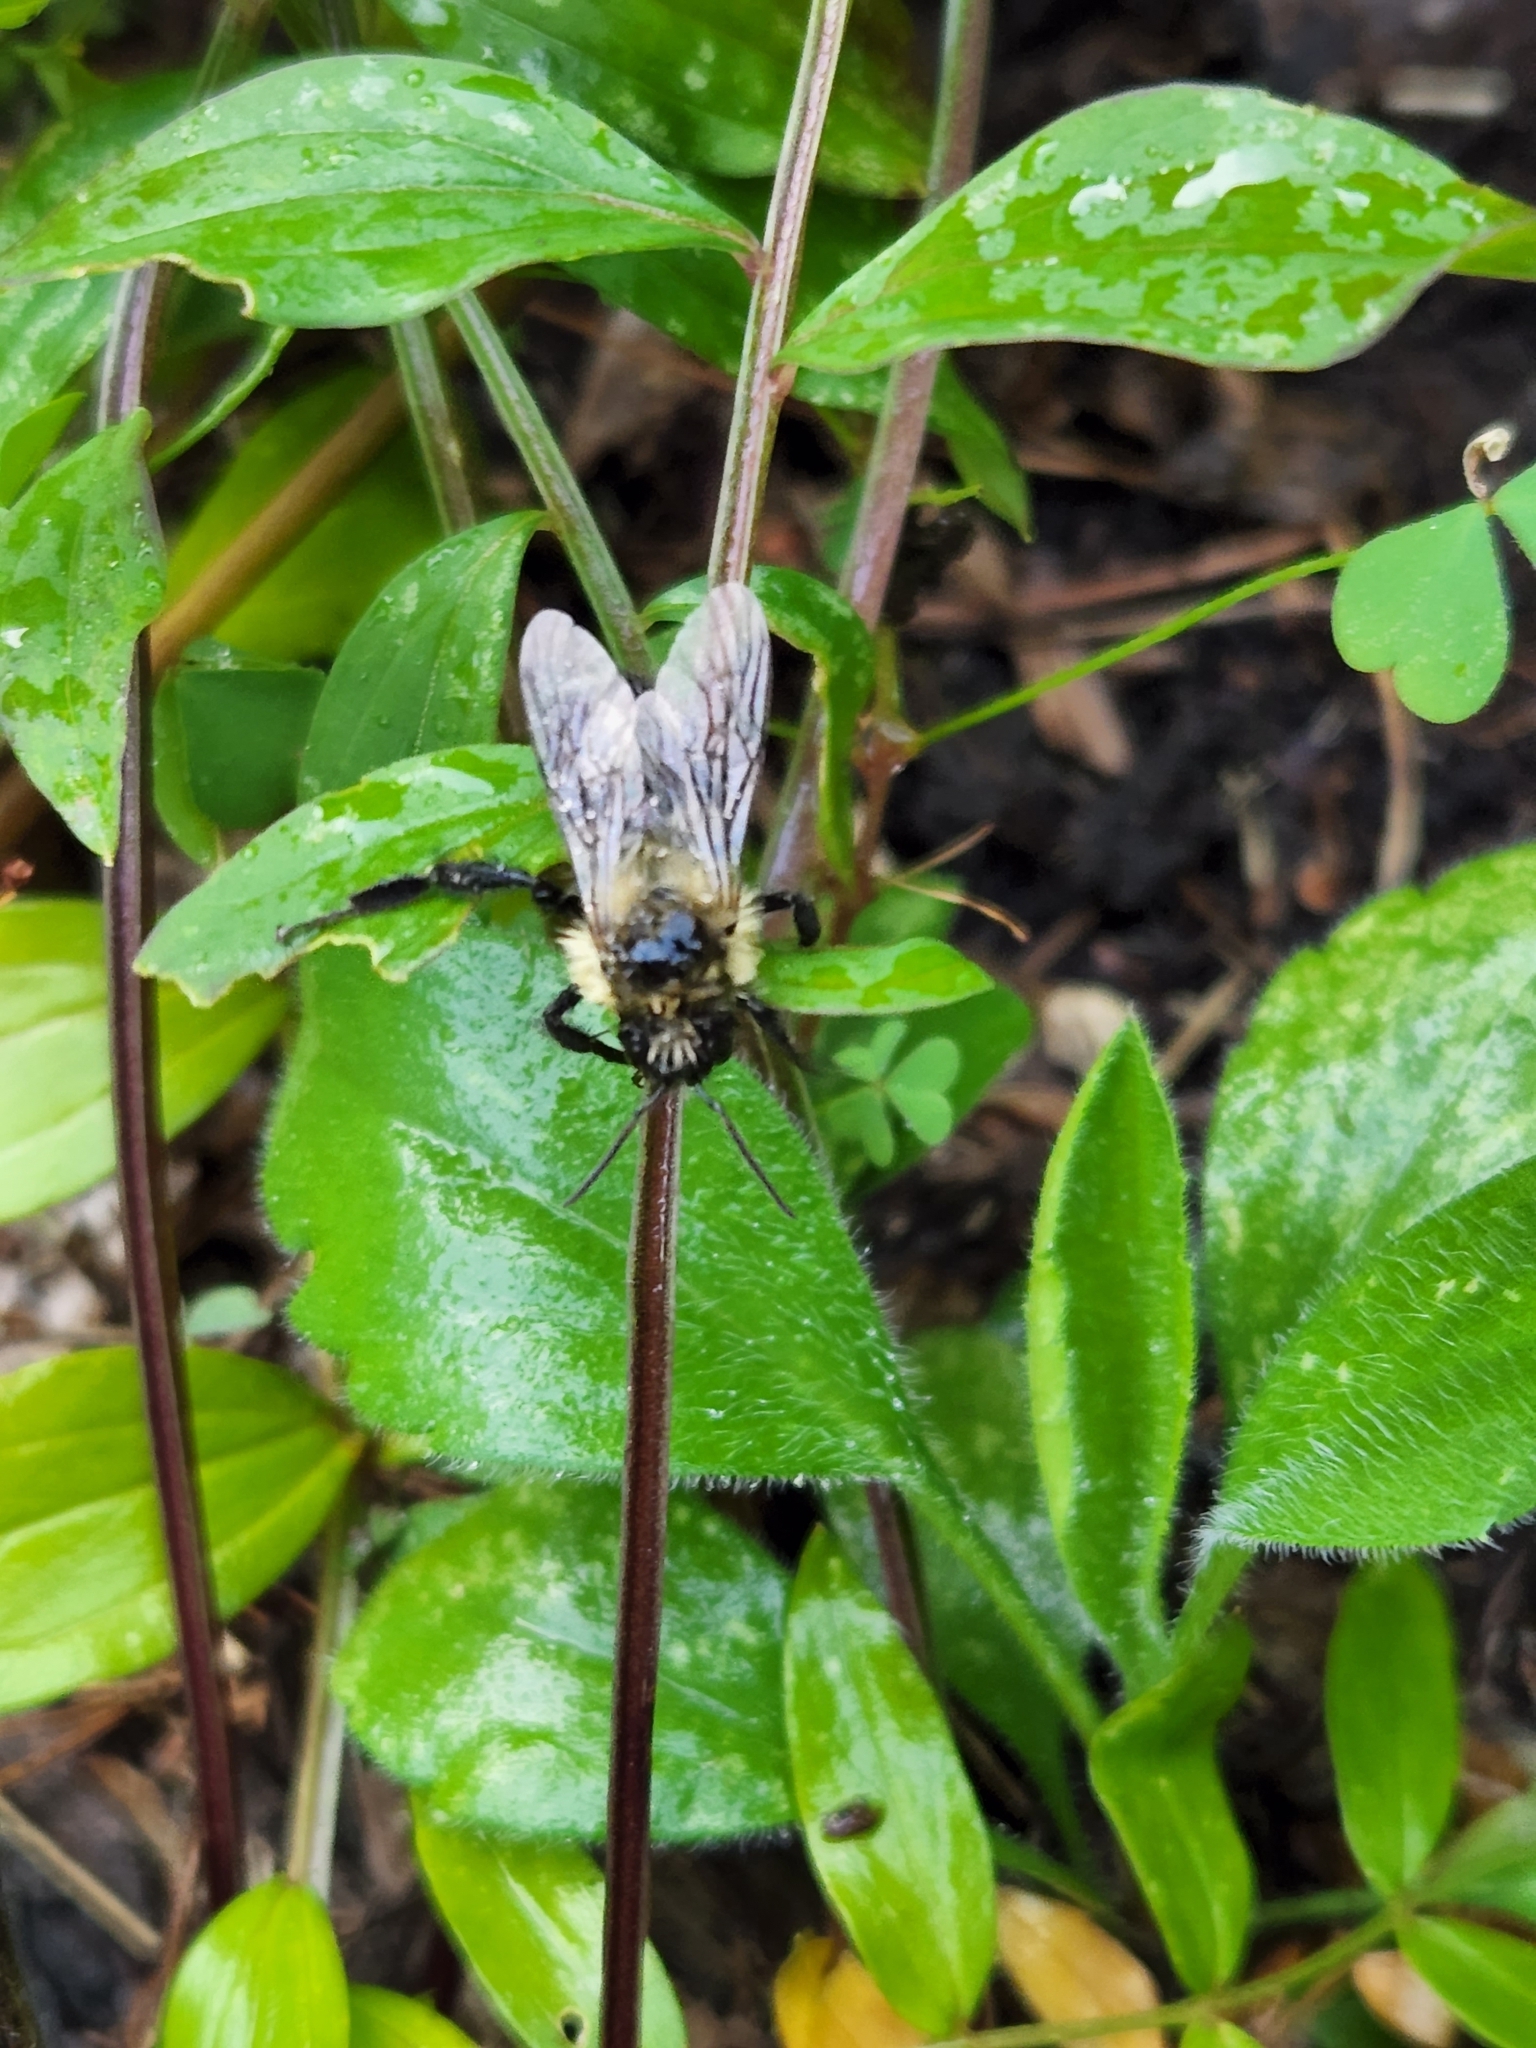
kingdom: Animalia
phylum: Arthropoda
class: Insecta
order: Hymenoptera
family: Apidae
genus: Bombus
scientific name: Bombus impatiens
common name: Common eastern bumble bee
